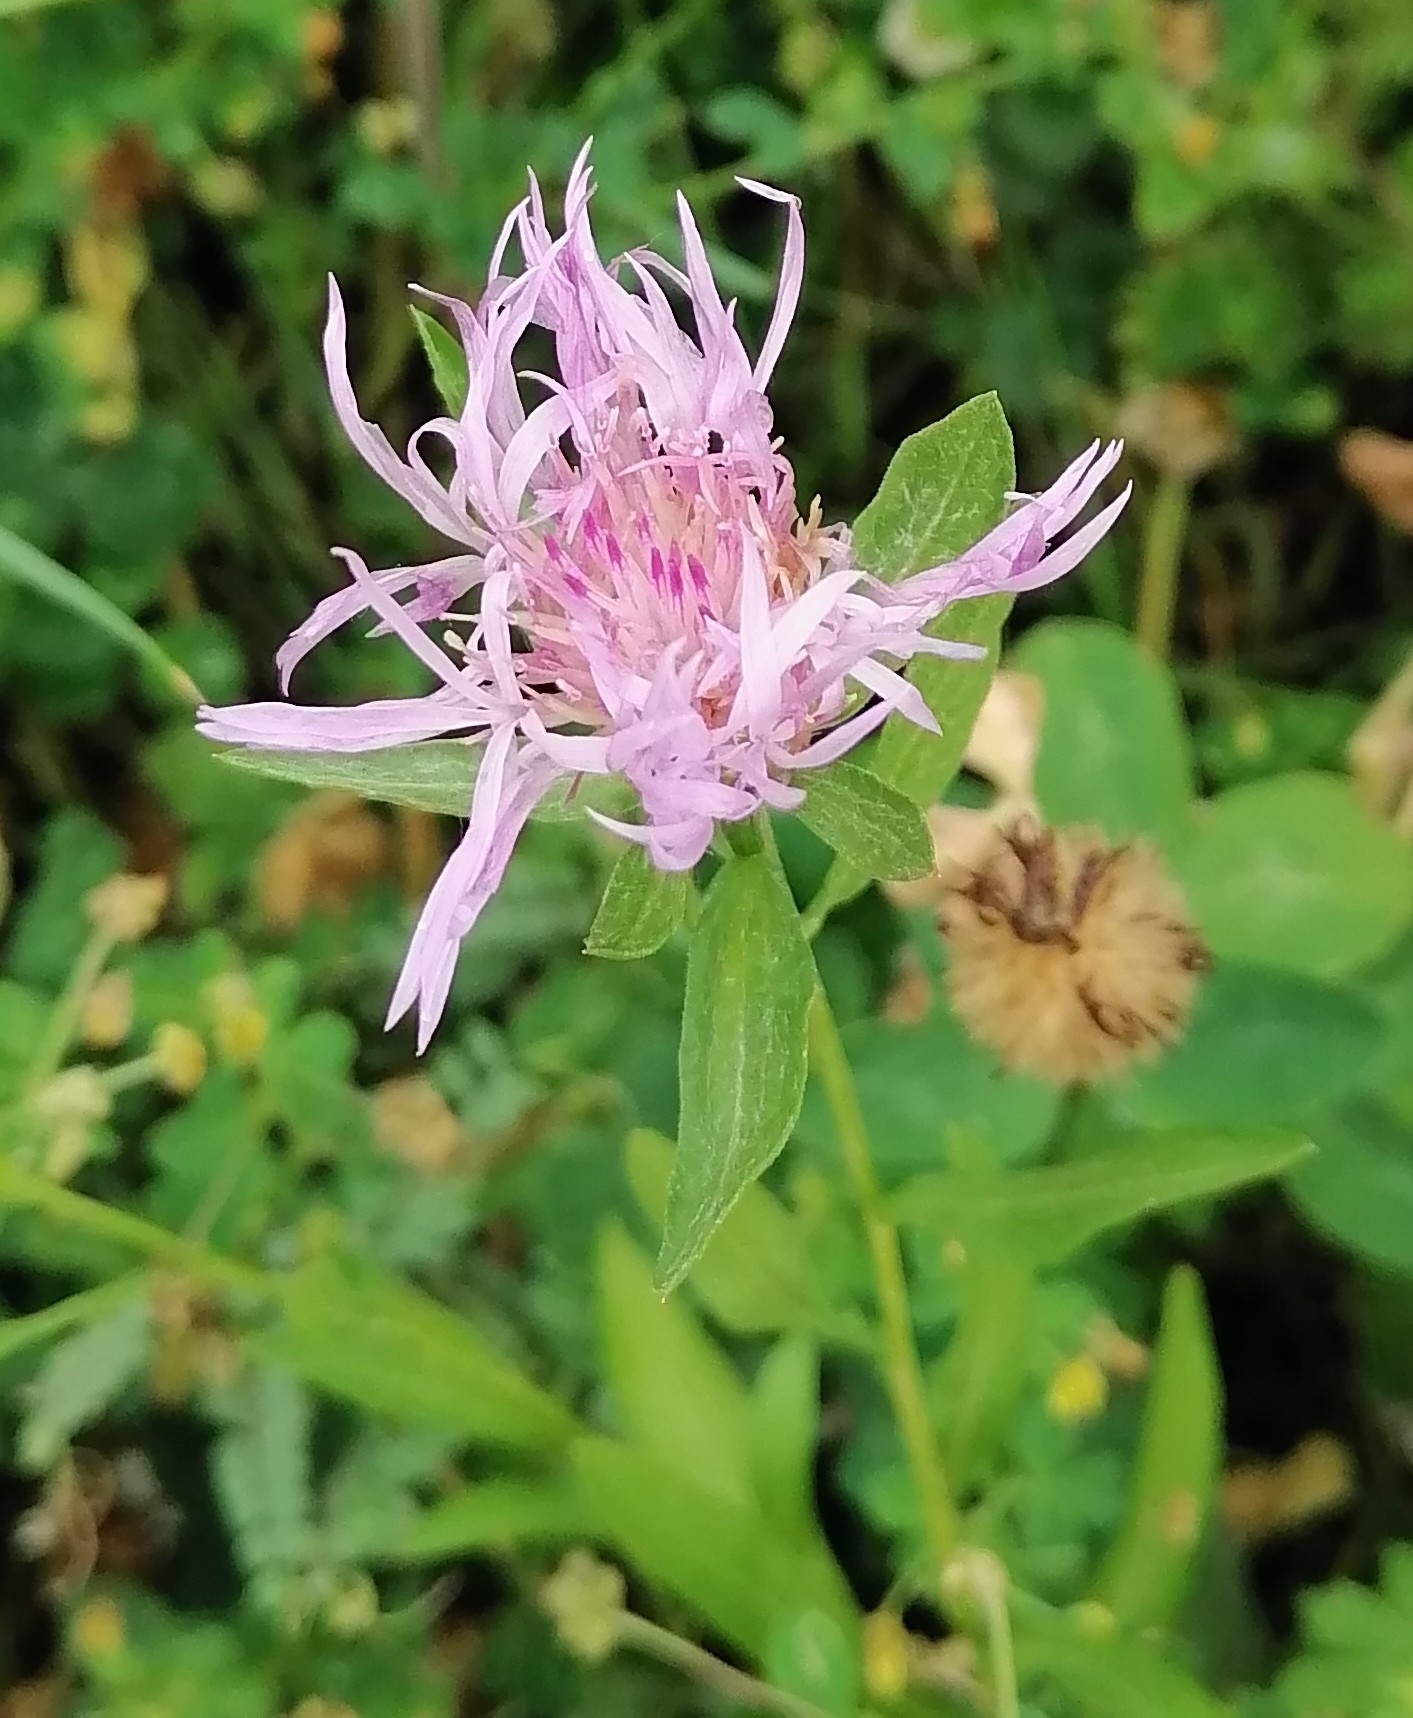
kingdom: Plantae
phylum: Tracheophyta
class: Magnoliopsida
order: Asterales
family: Asteraceae
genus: Centaurea
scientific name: Centaurea jacea
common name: Brown knapweed
